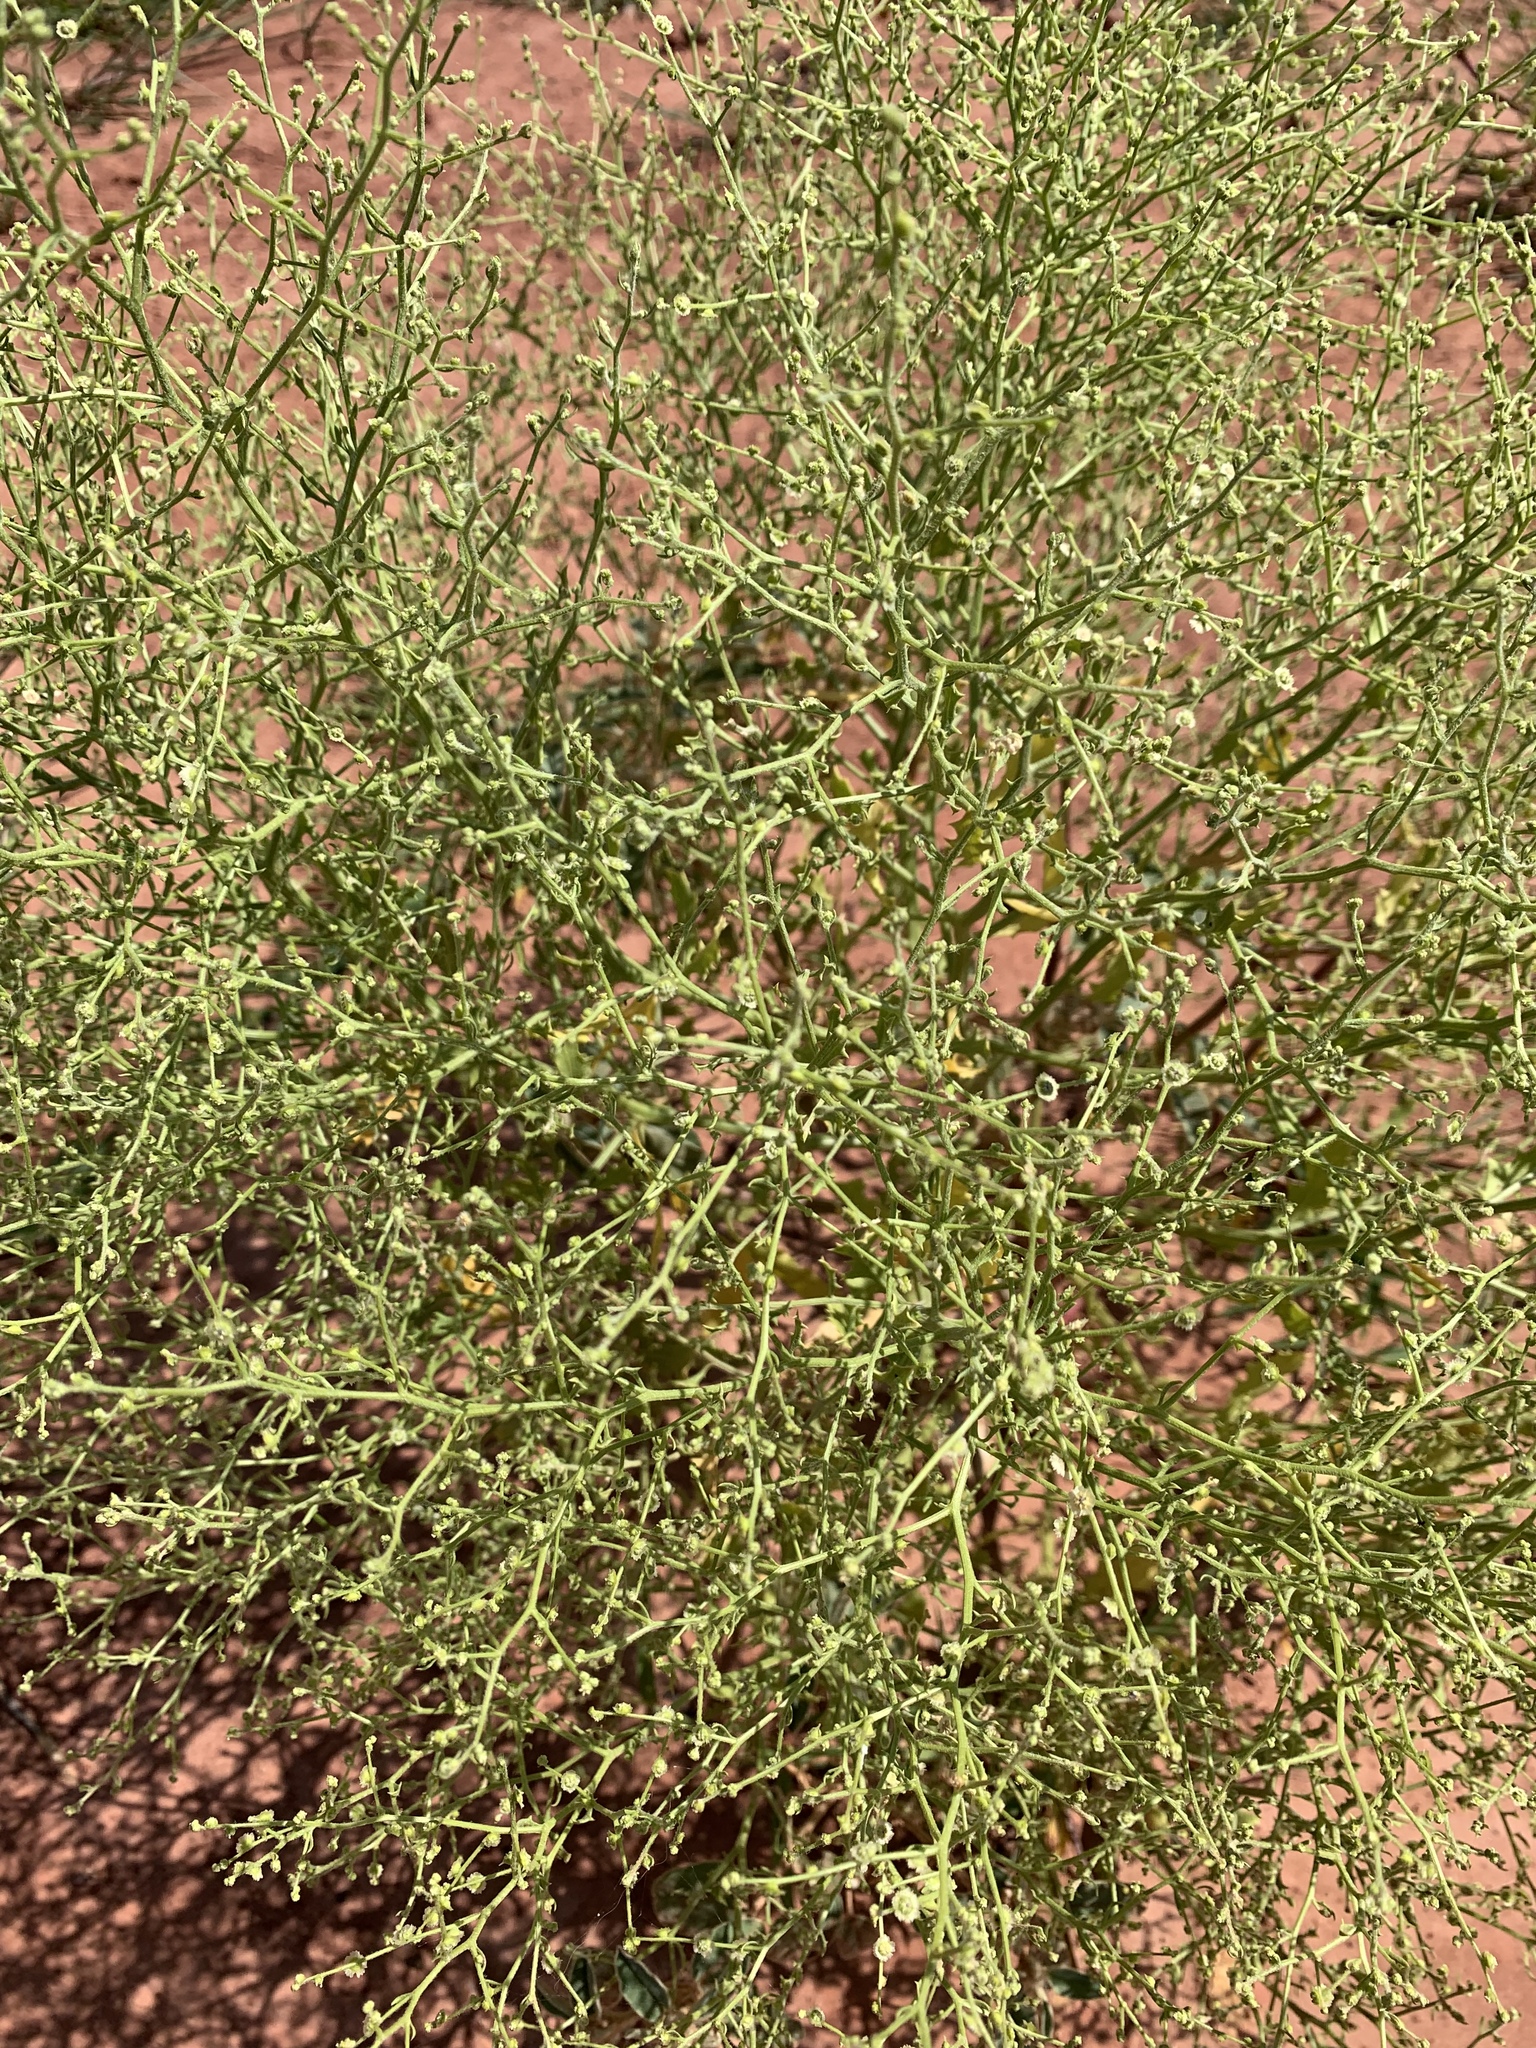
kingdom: Plantae
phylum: Tracheophyta
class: Magnoliopsida
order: Caryophyllales
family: Amaranthaceae
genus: Dysphania
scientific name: Dysphania atriplicifolia
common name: Plains tumbleweed
